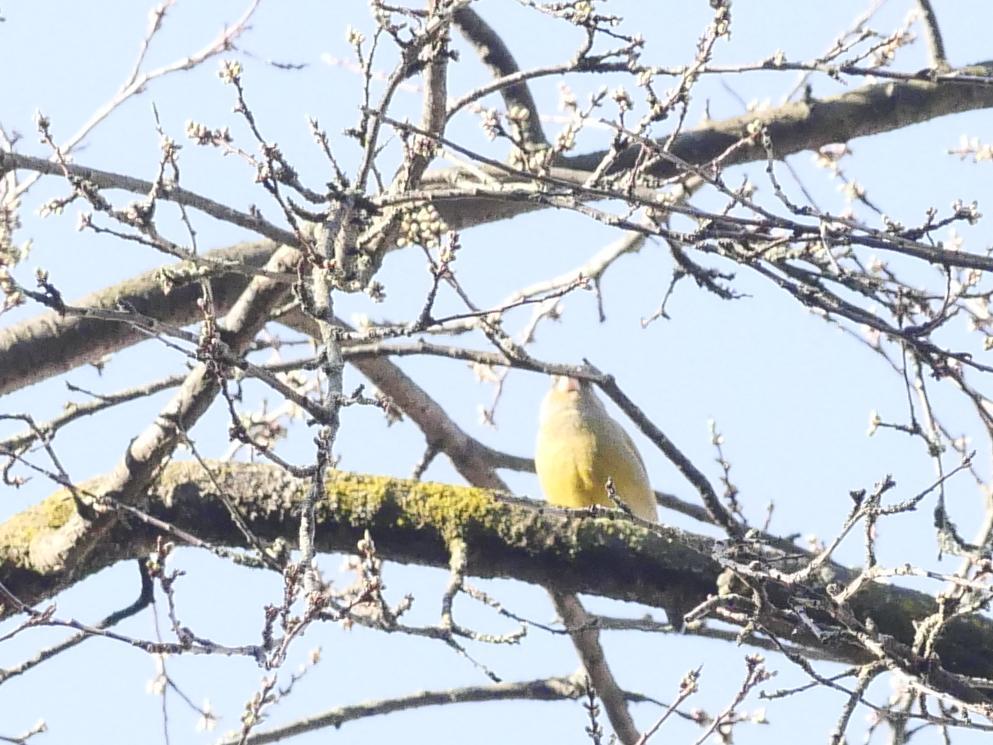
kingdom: Plantae
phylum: Tracheophyta
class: Liliopsida
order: Poales
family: Poaceae
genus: Chloris
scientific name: Chloris chloris
